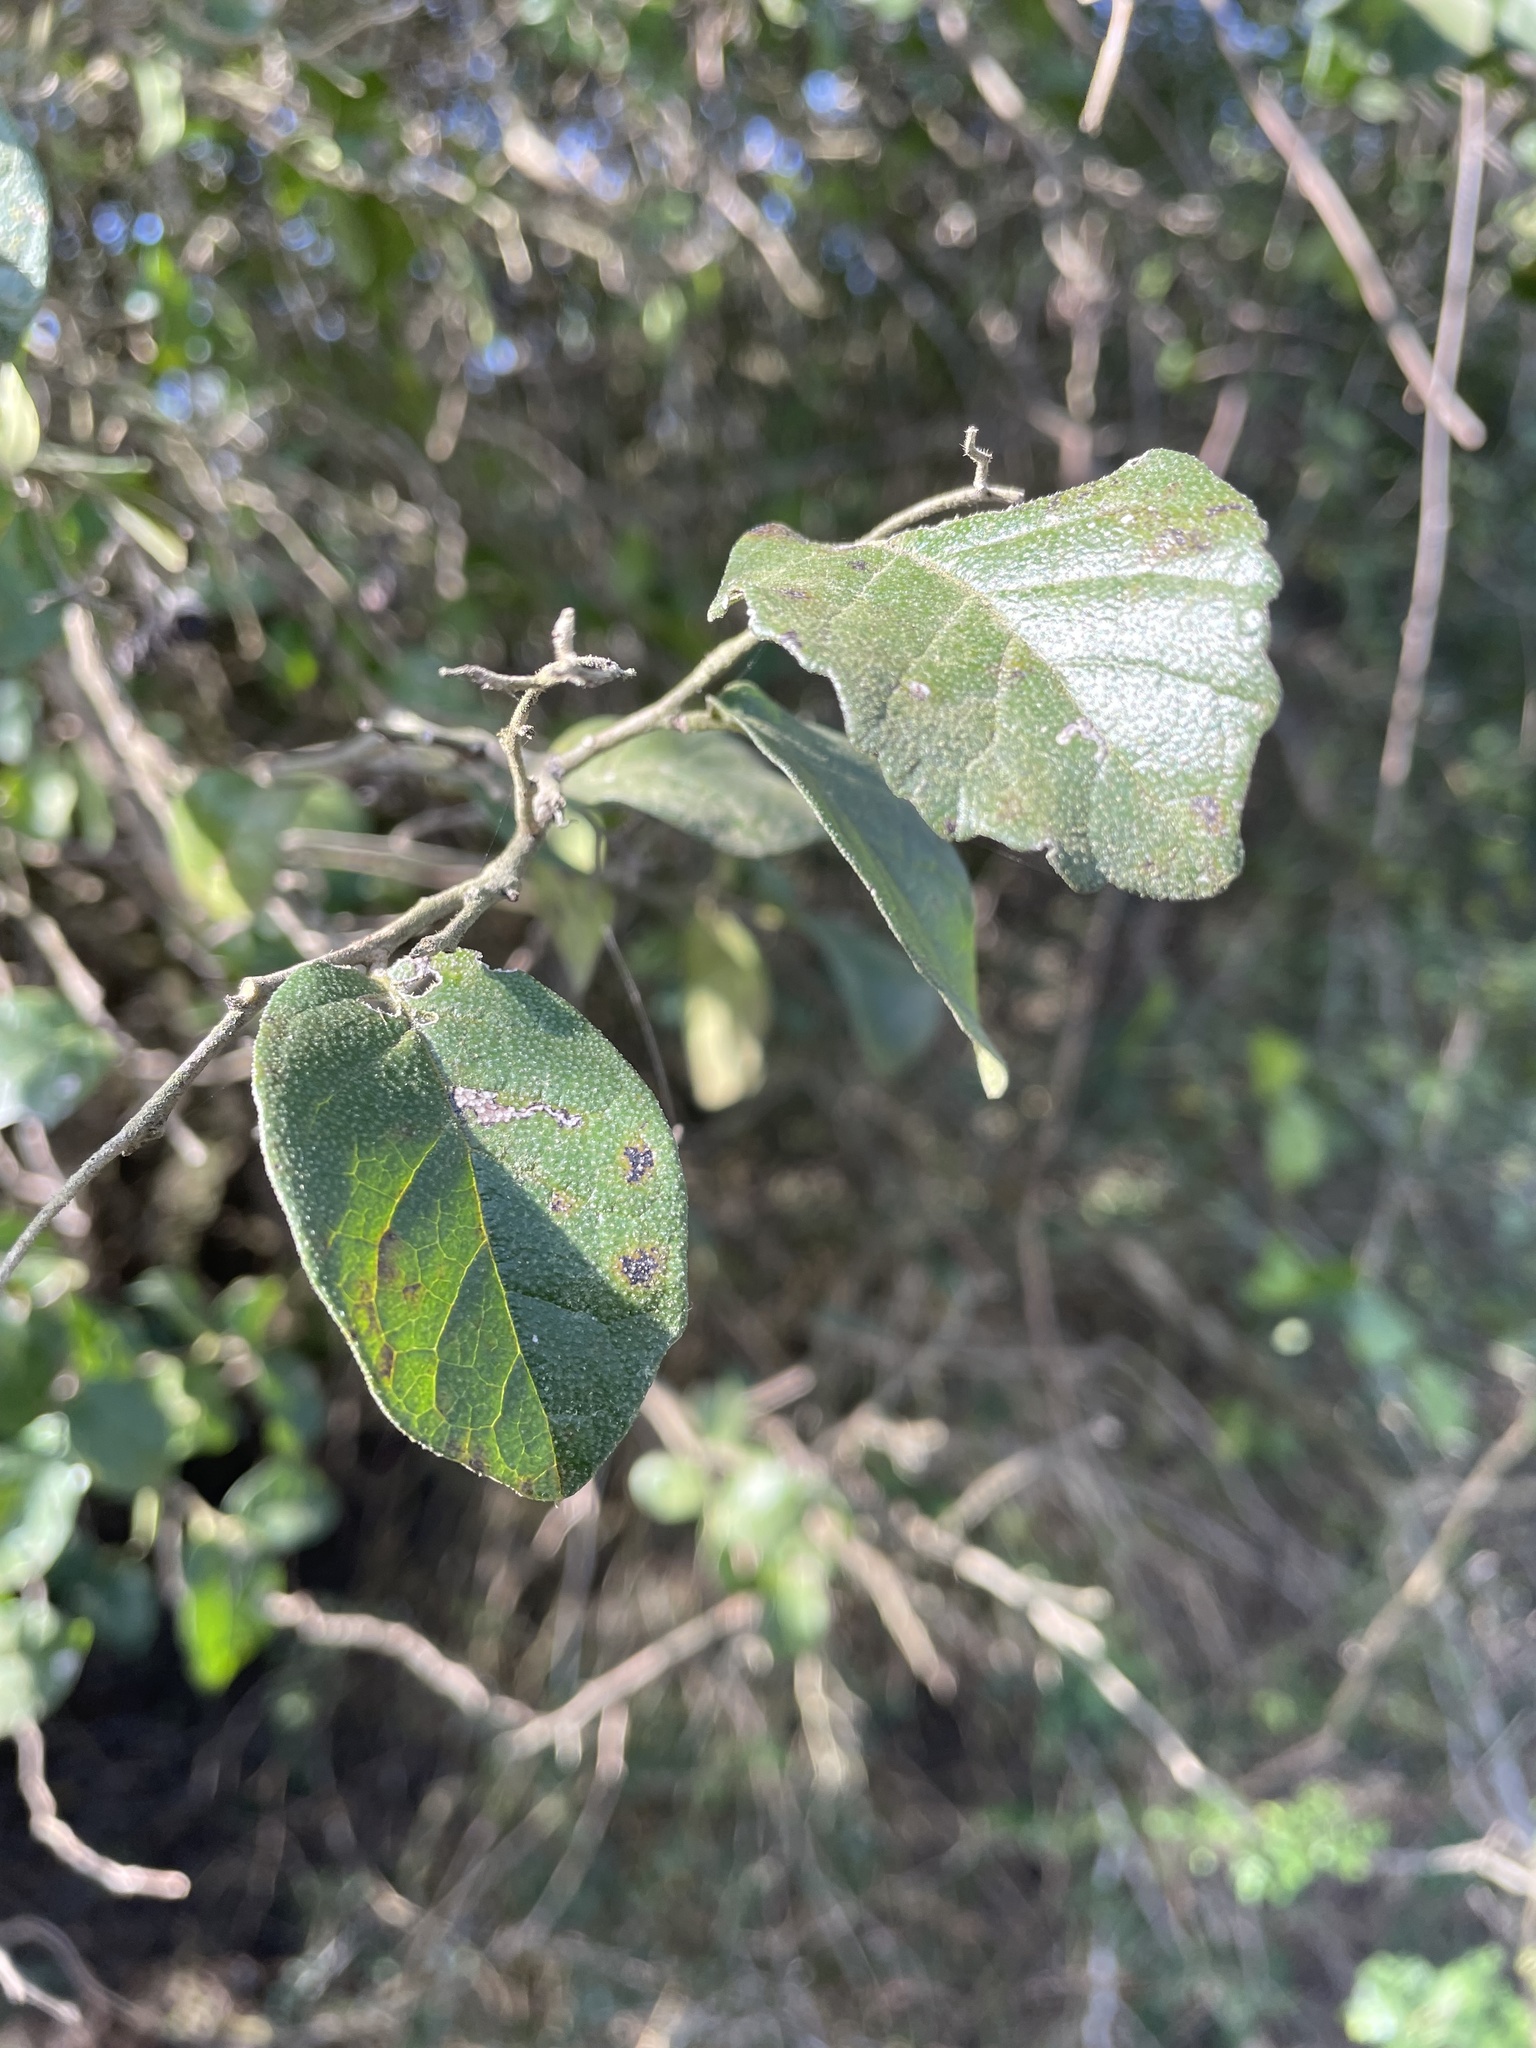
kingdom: Plantae
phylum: Tracheophyta
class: Magnoliopsida
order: Boraginales
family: Ehretiaceae
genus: Ehretia
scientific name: Ehretia anacua
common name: Sugarberry
